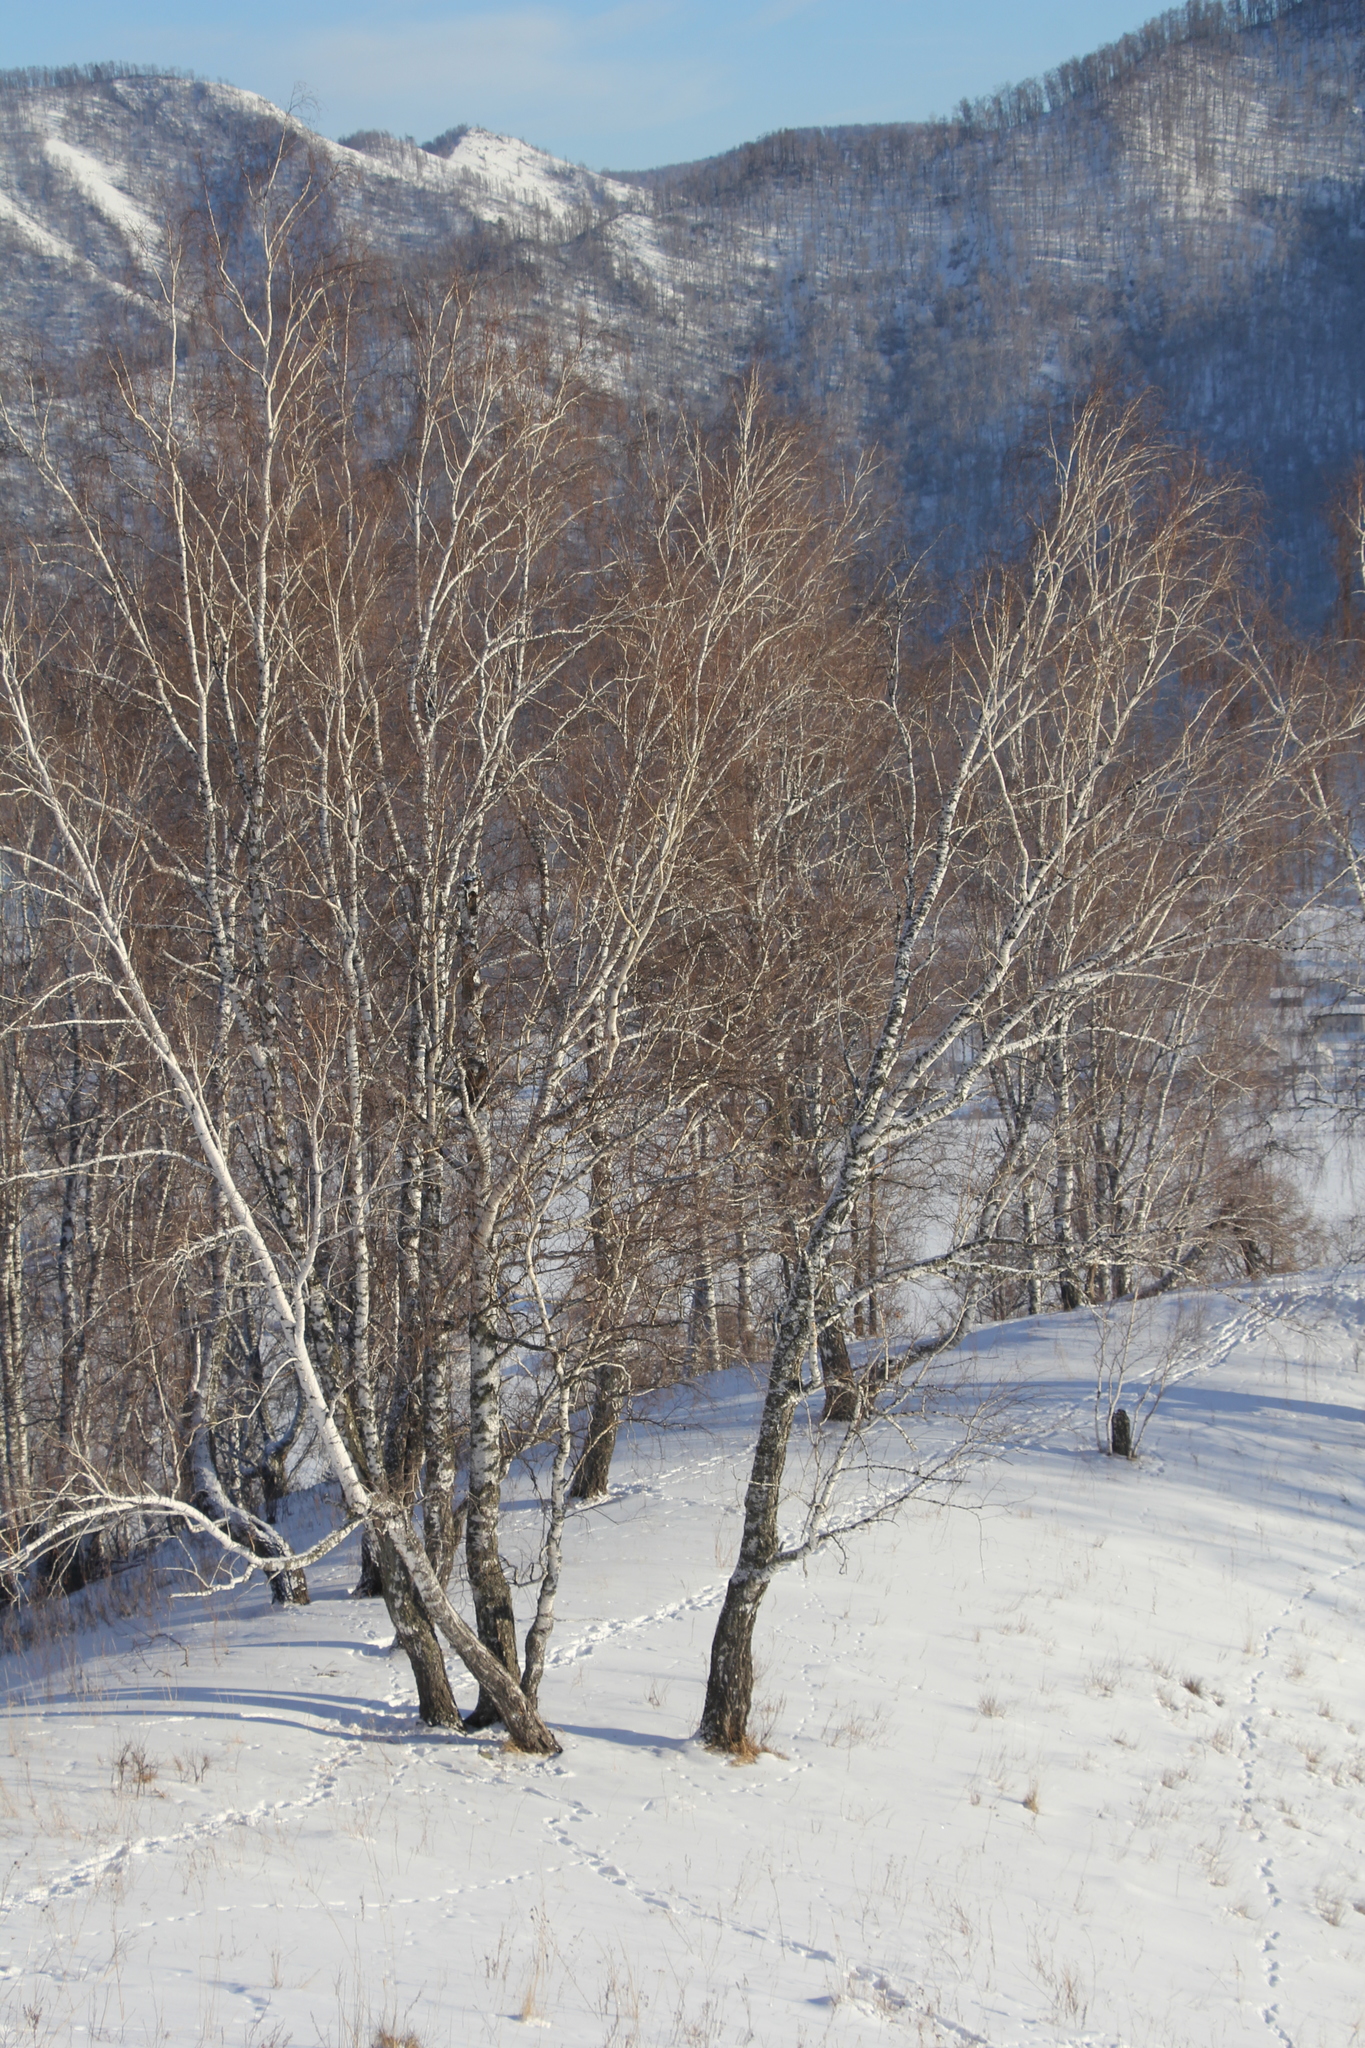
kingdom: Plantae
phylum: Tracheophyta
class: Magnoliopsida
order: Fagales
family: Betulaceae
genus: Betula
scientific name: Betula pendula
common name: Silver birch
